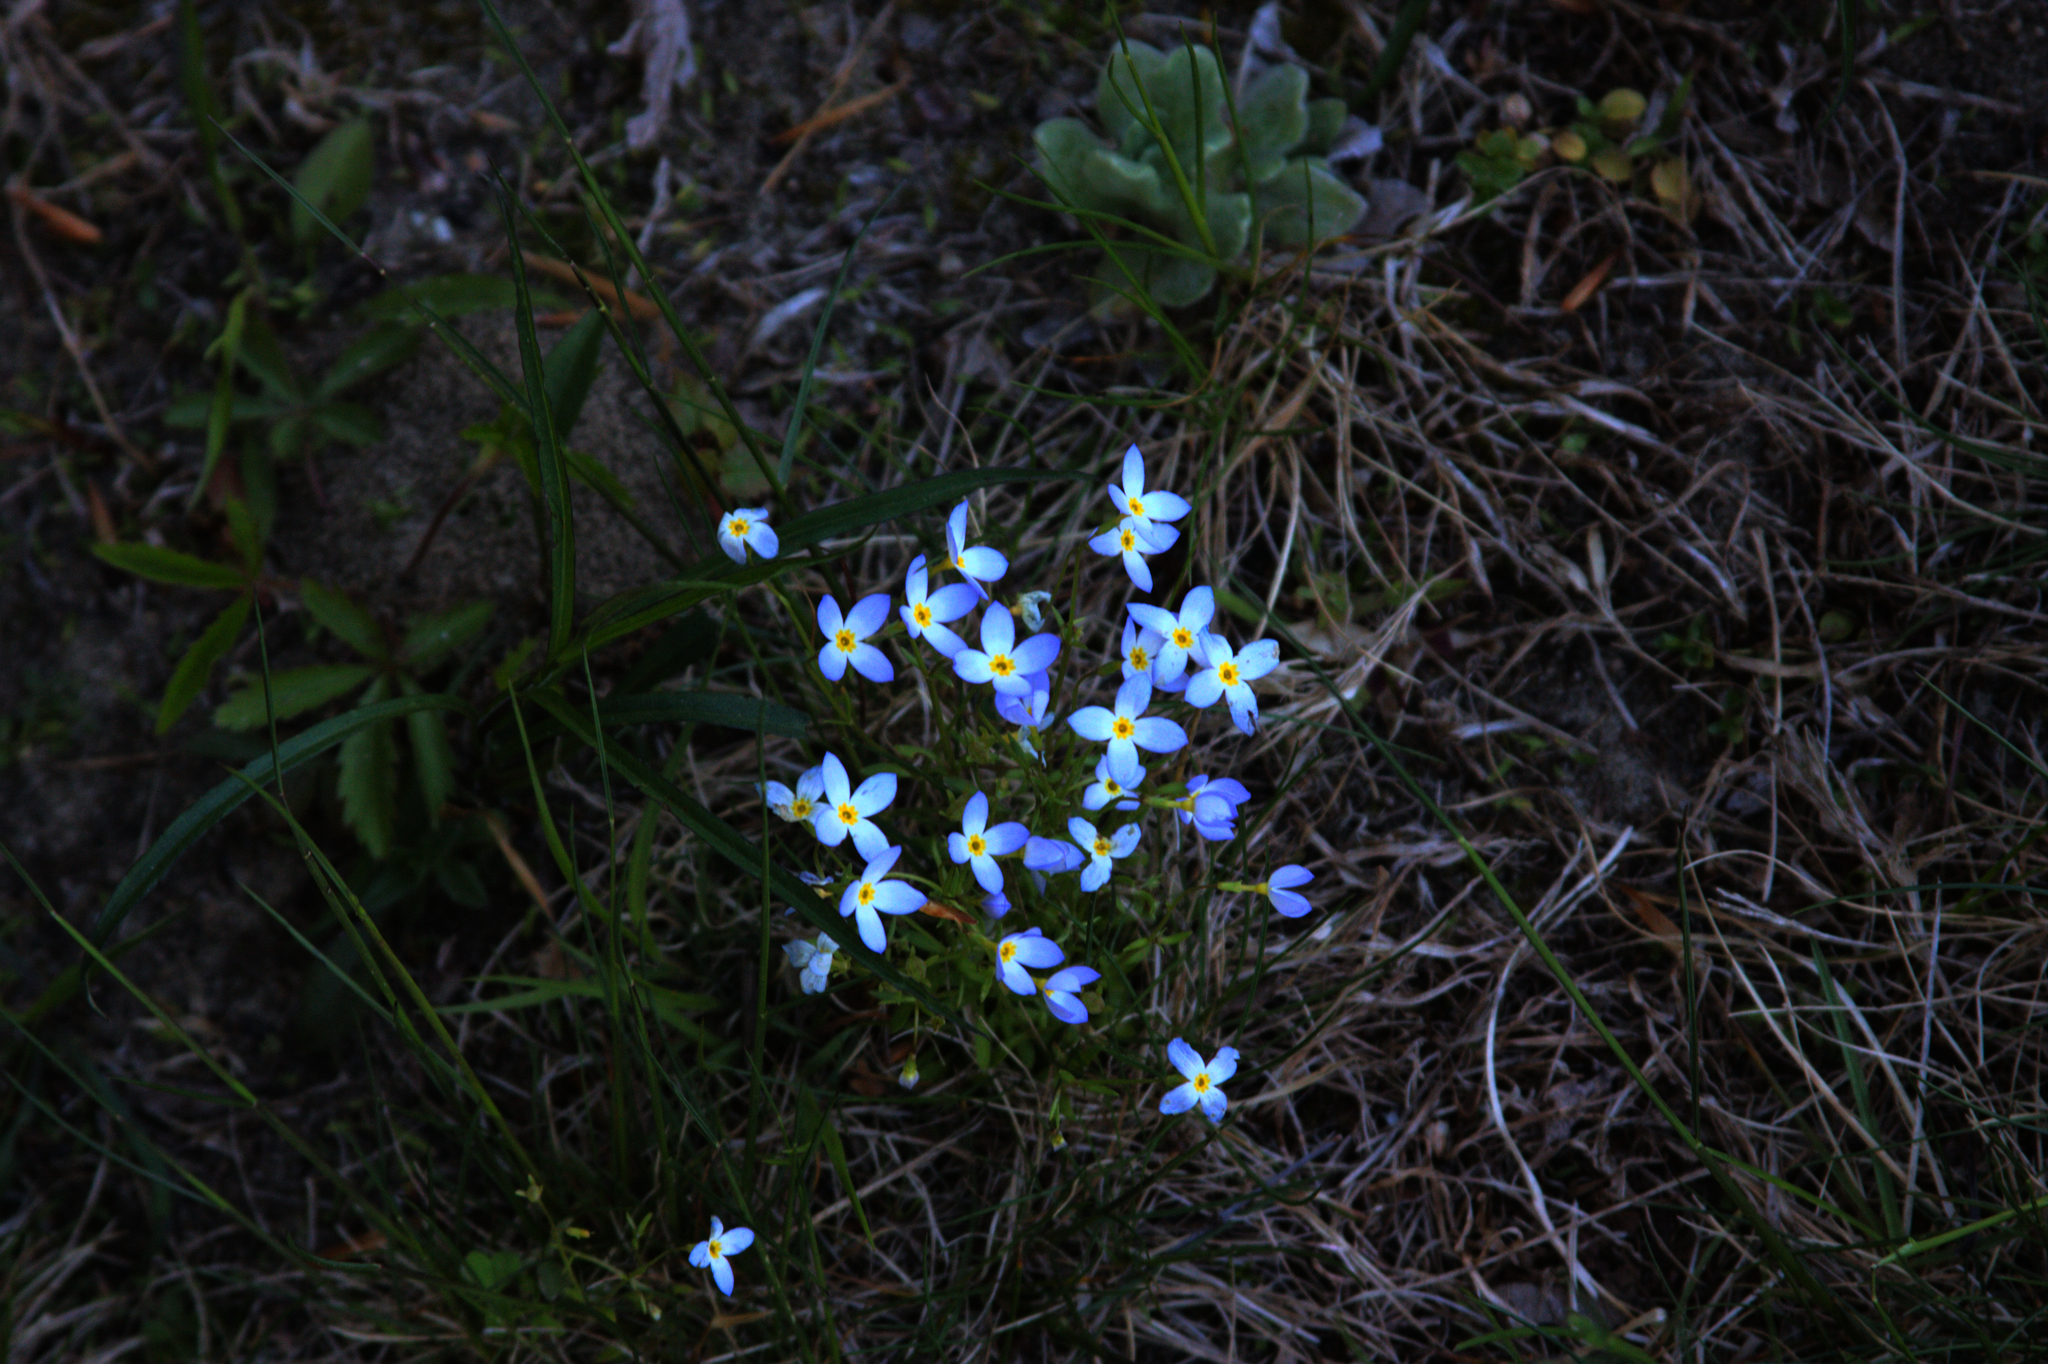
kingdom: Plantae
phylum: Tracheophyta
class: Magnoliopsida
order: Gentianales
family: Rubiaceae
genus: Houstonia
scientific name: Houstonia caerulea
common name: Bluets
